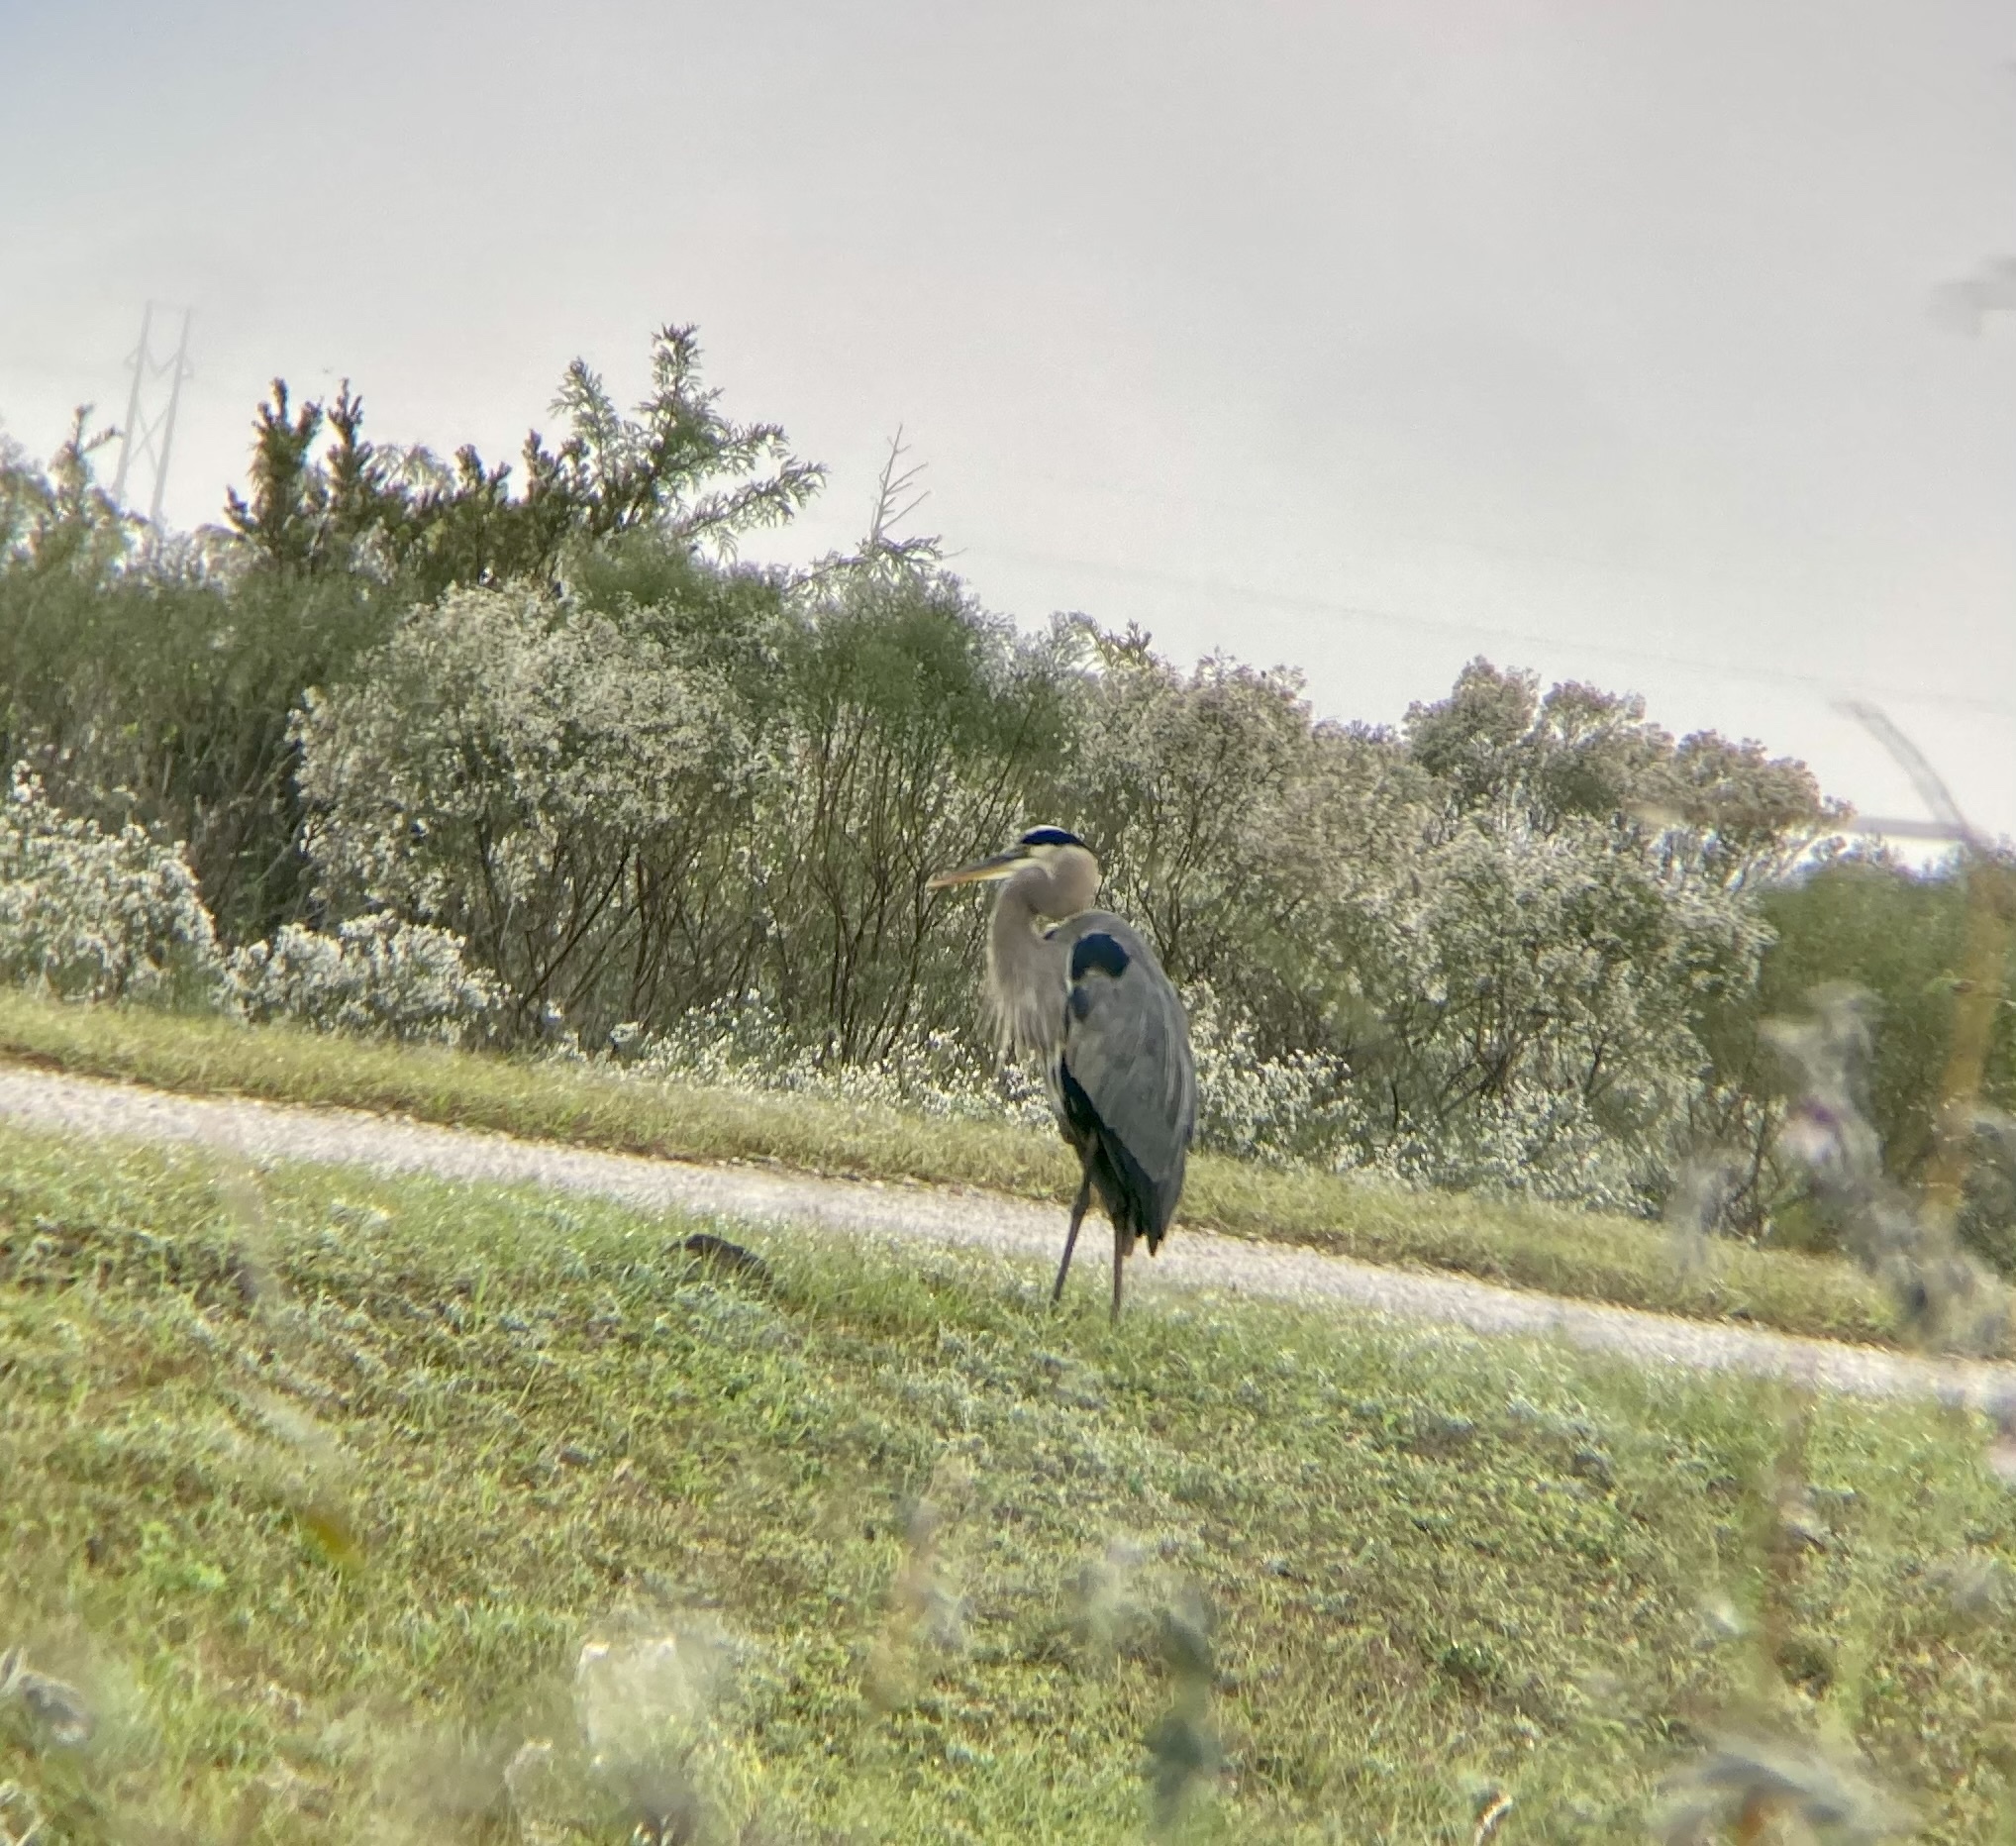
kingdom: Animalia
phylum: Chordata
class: Aves
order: Pelecaniformes
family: Ardeidae
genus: Ardea
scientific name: Ardea herodias
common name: Great blue heron
